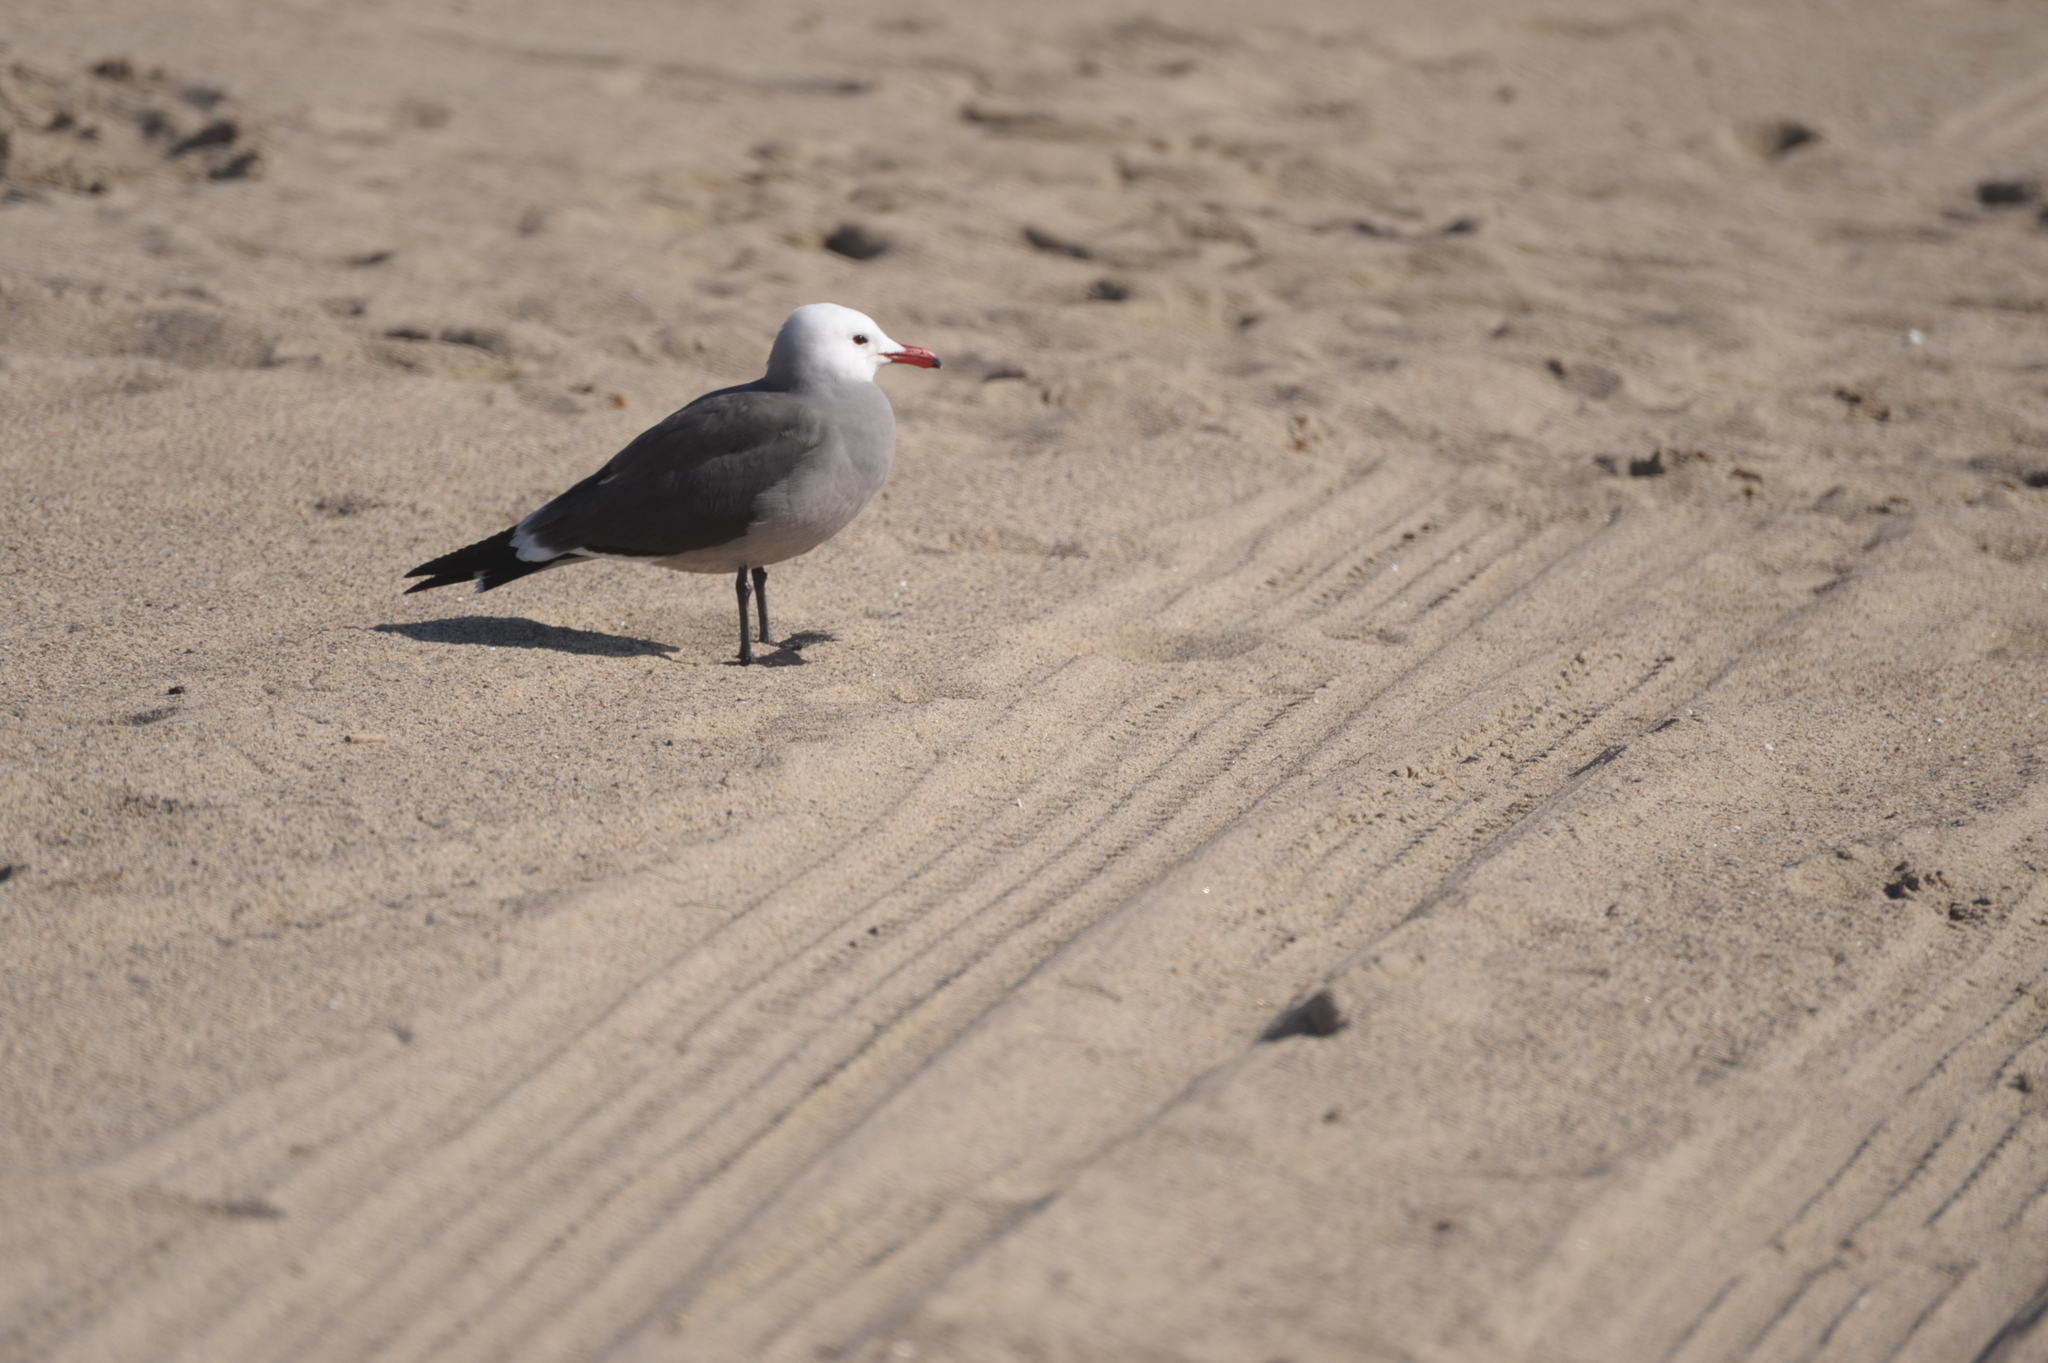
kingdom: Animalia
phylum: Chordata
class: Aves
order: Charadriiformes
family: Laridae
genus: Larus
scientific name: Larus heermanni
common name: Heermann's gull
